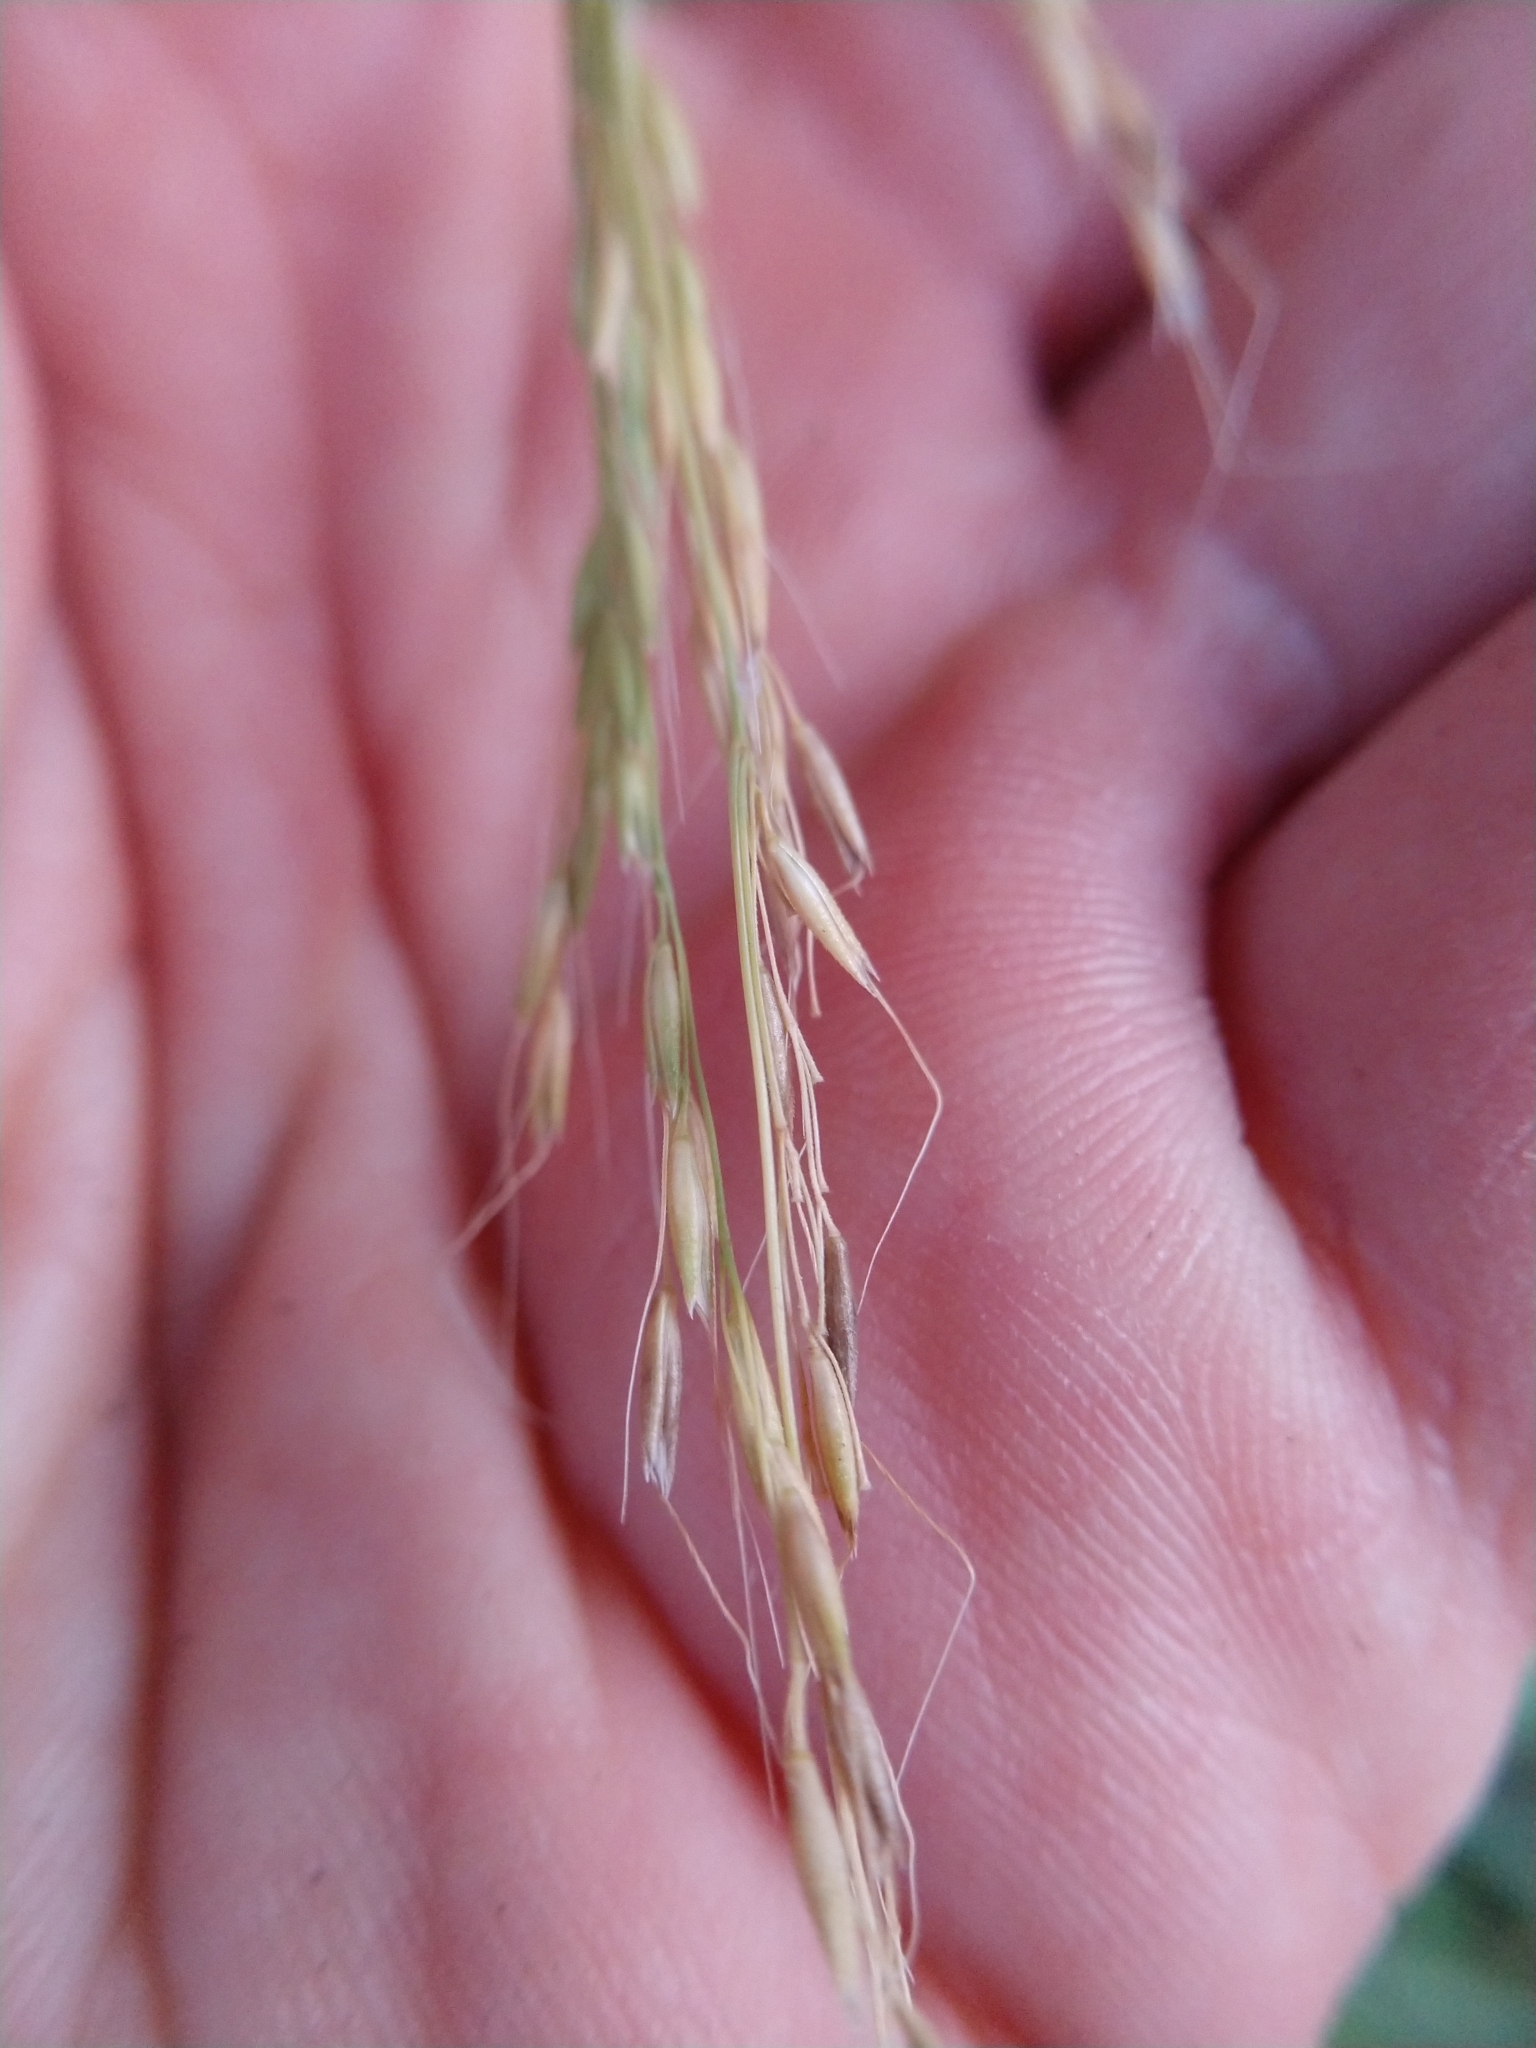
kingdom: Plantae
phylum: Tracheophyta
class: Liliopsida
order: Poales
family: Poaceae
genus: Limnodea
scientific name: Limnodea arkansana
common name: Ozark-grass
